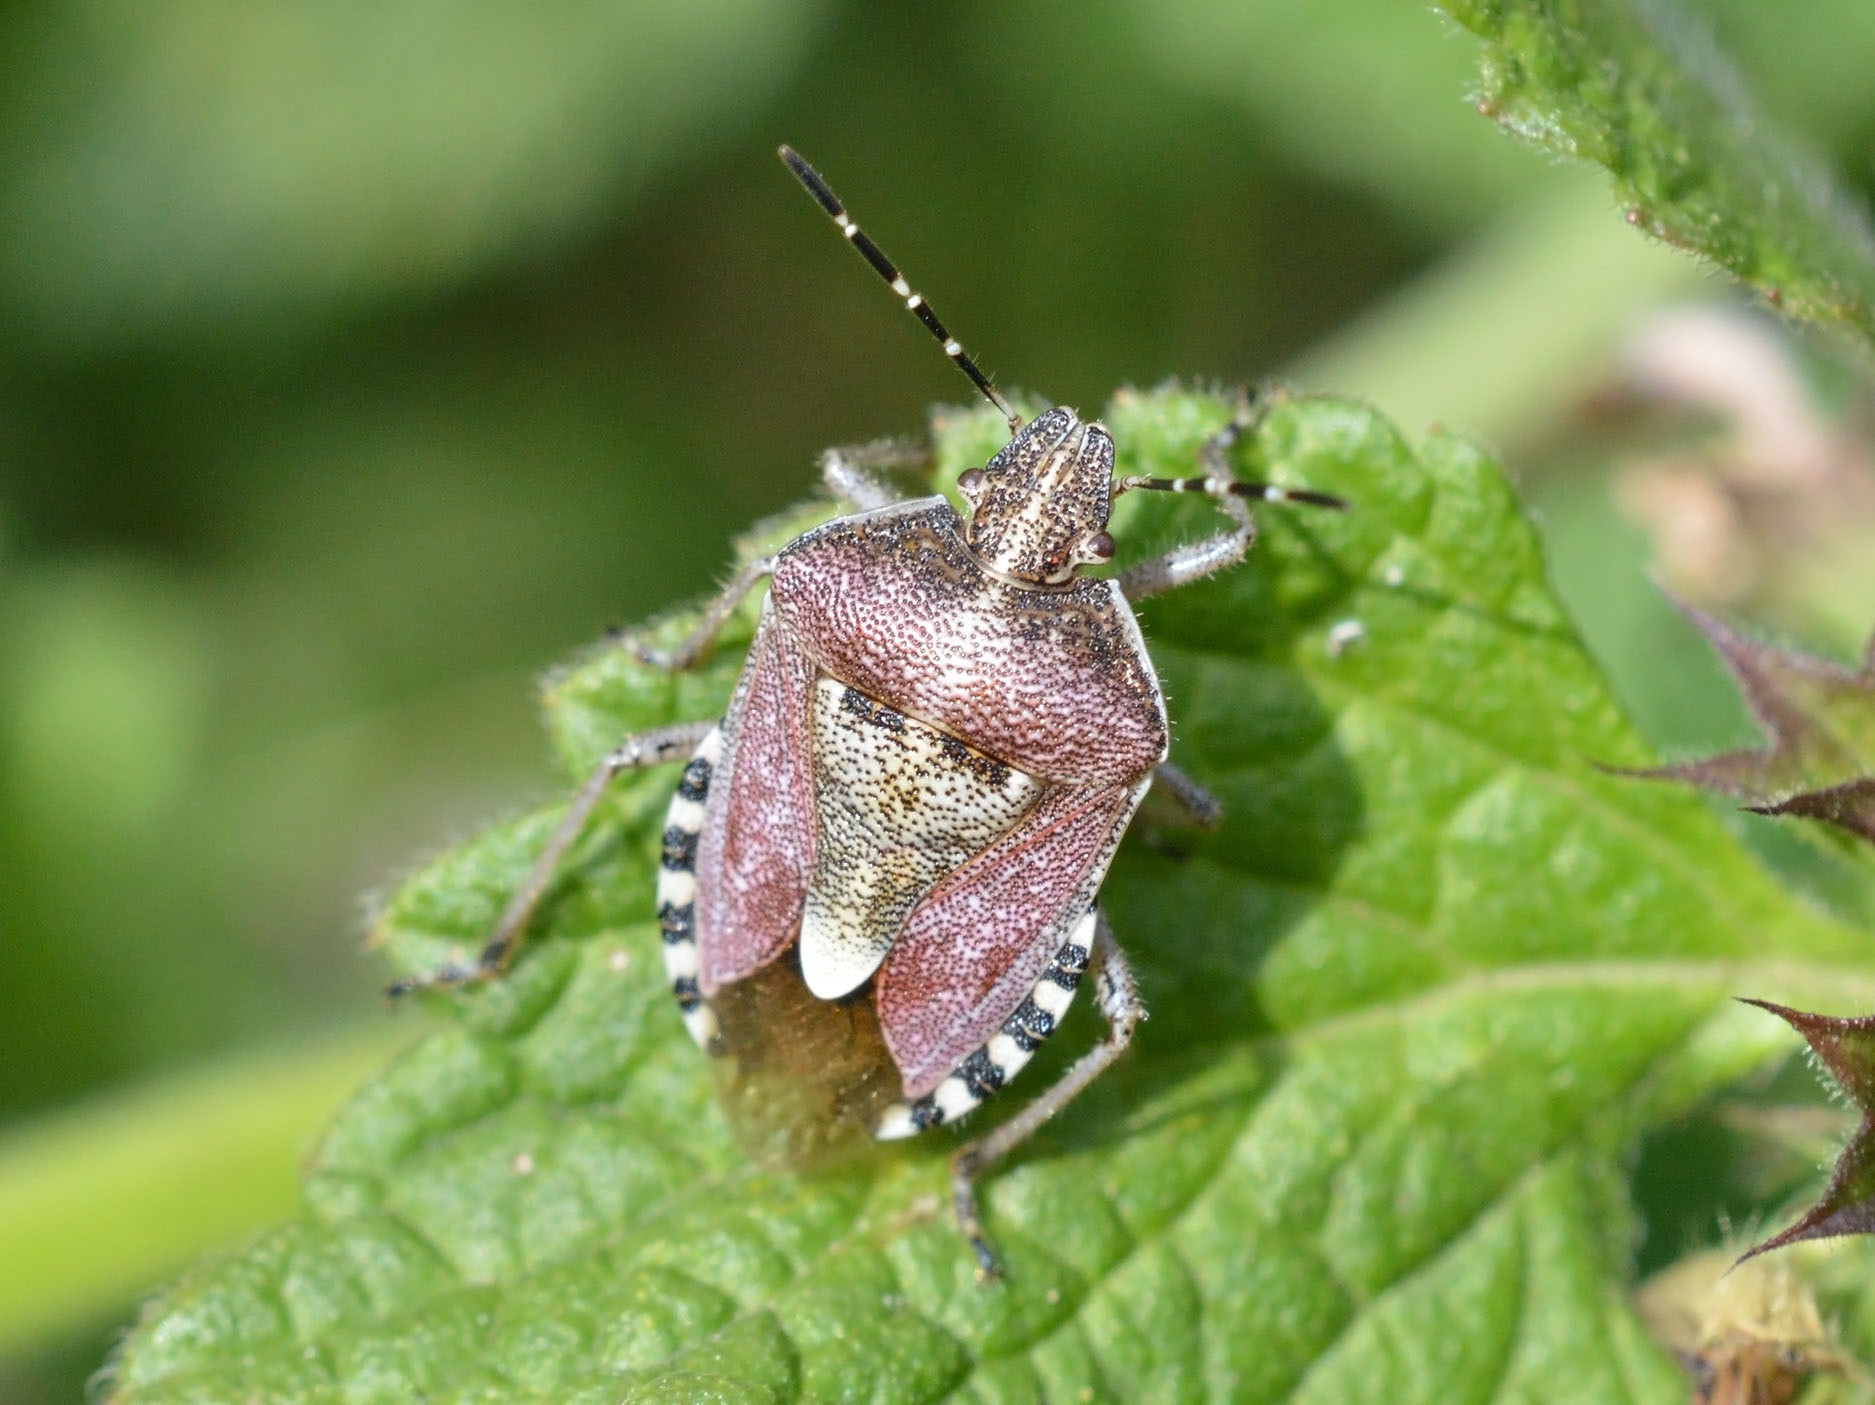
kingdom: Animalia
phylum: Arthropoda
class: Insecta
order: Hemiptera
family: Pentatomidae
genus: Dolycoris
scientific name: Dolycoris baccarum
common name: Sloe bug
